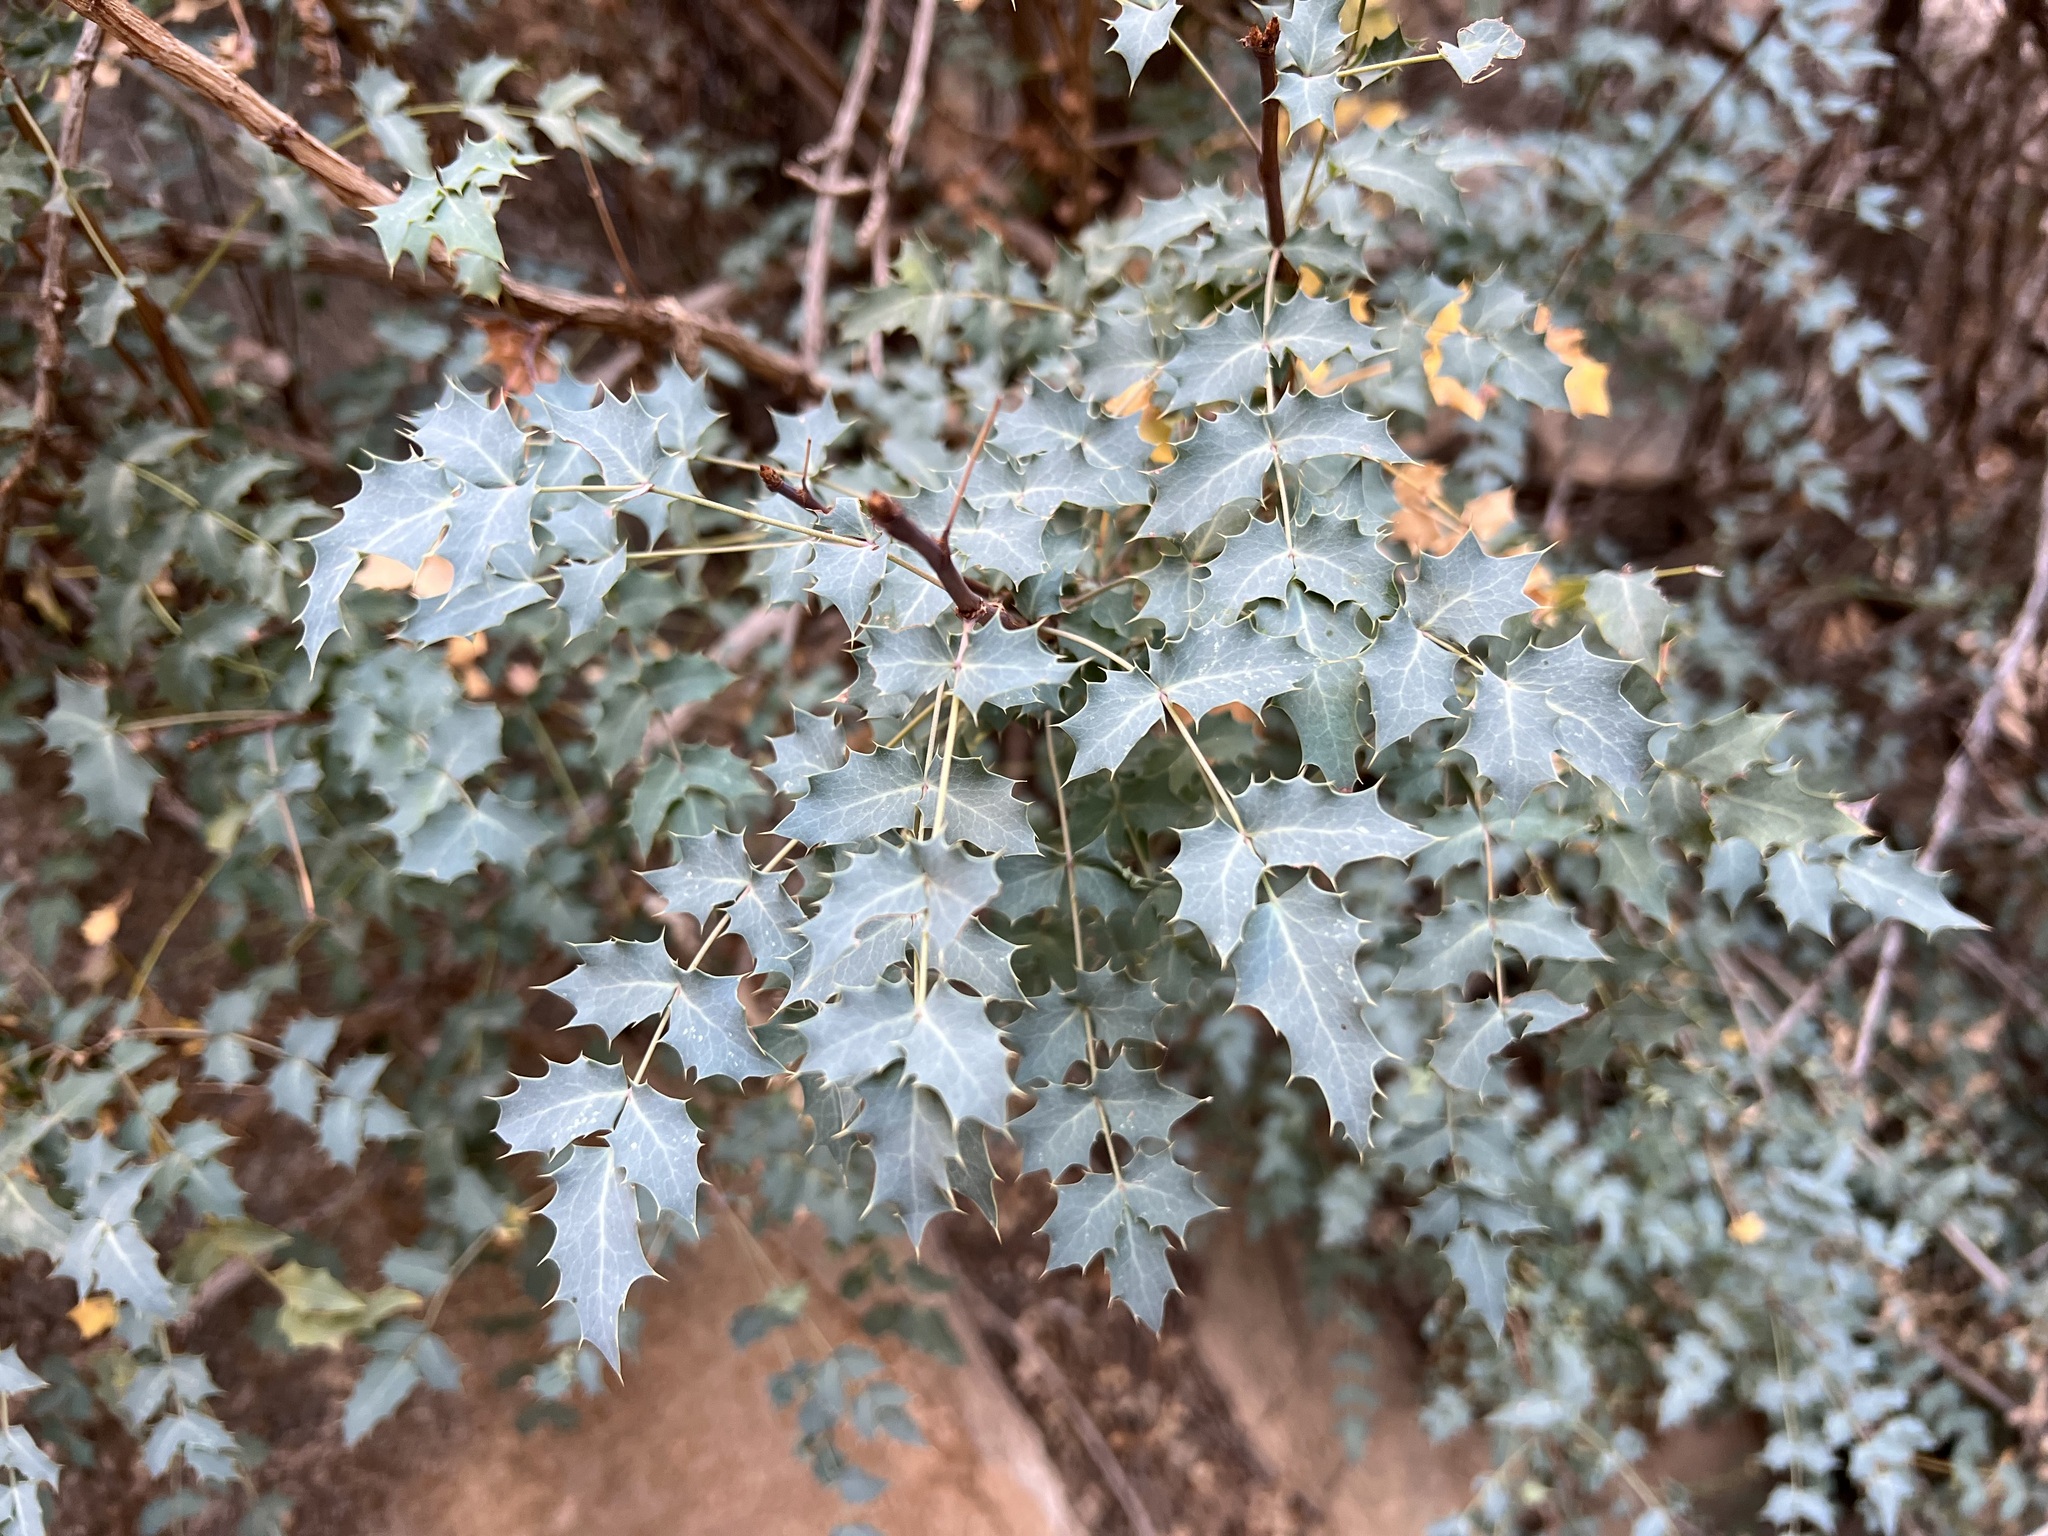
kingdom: Plantae
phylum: Tracheophyta
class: Magnoliopsida
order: Ranunculales
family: Berberidaceae
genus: Alloberberis
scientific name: Alloberberis fremontii
